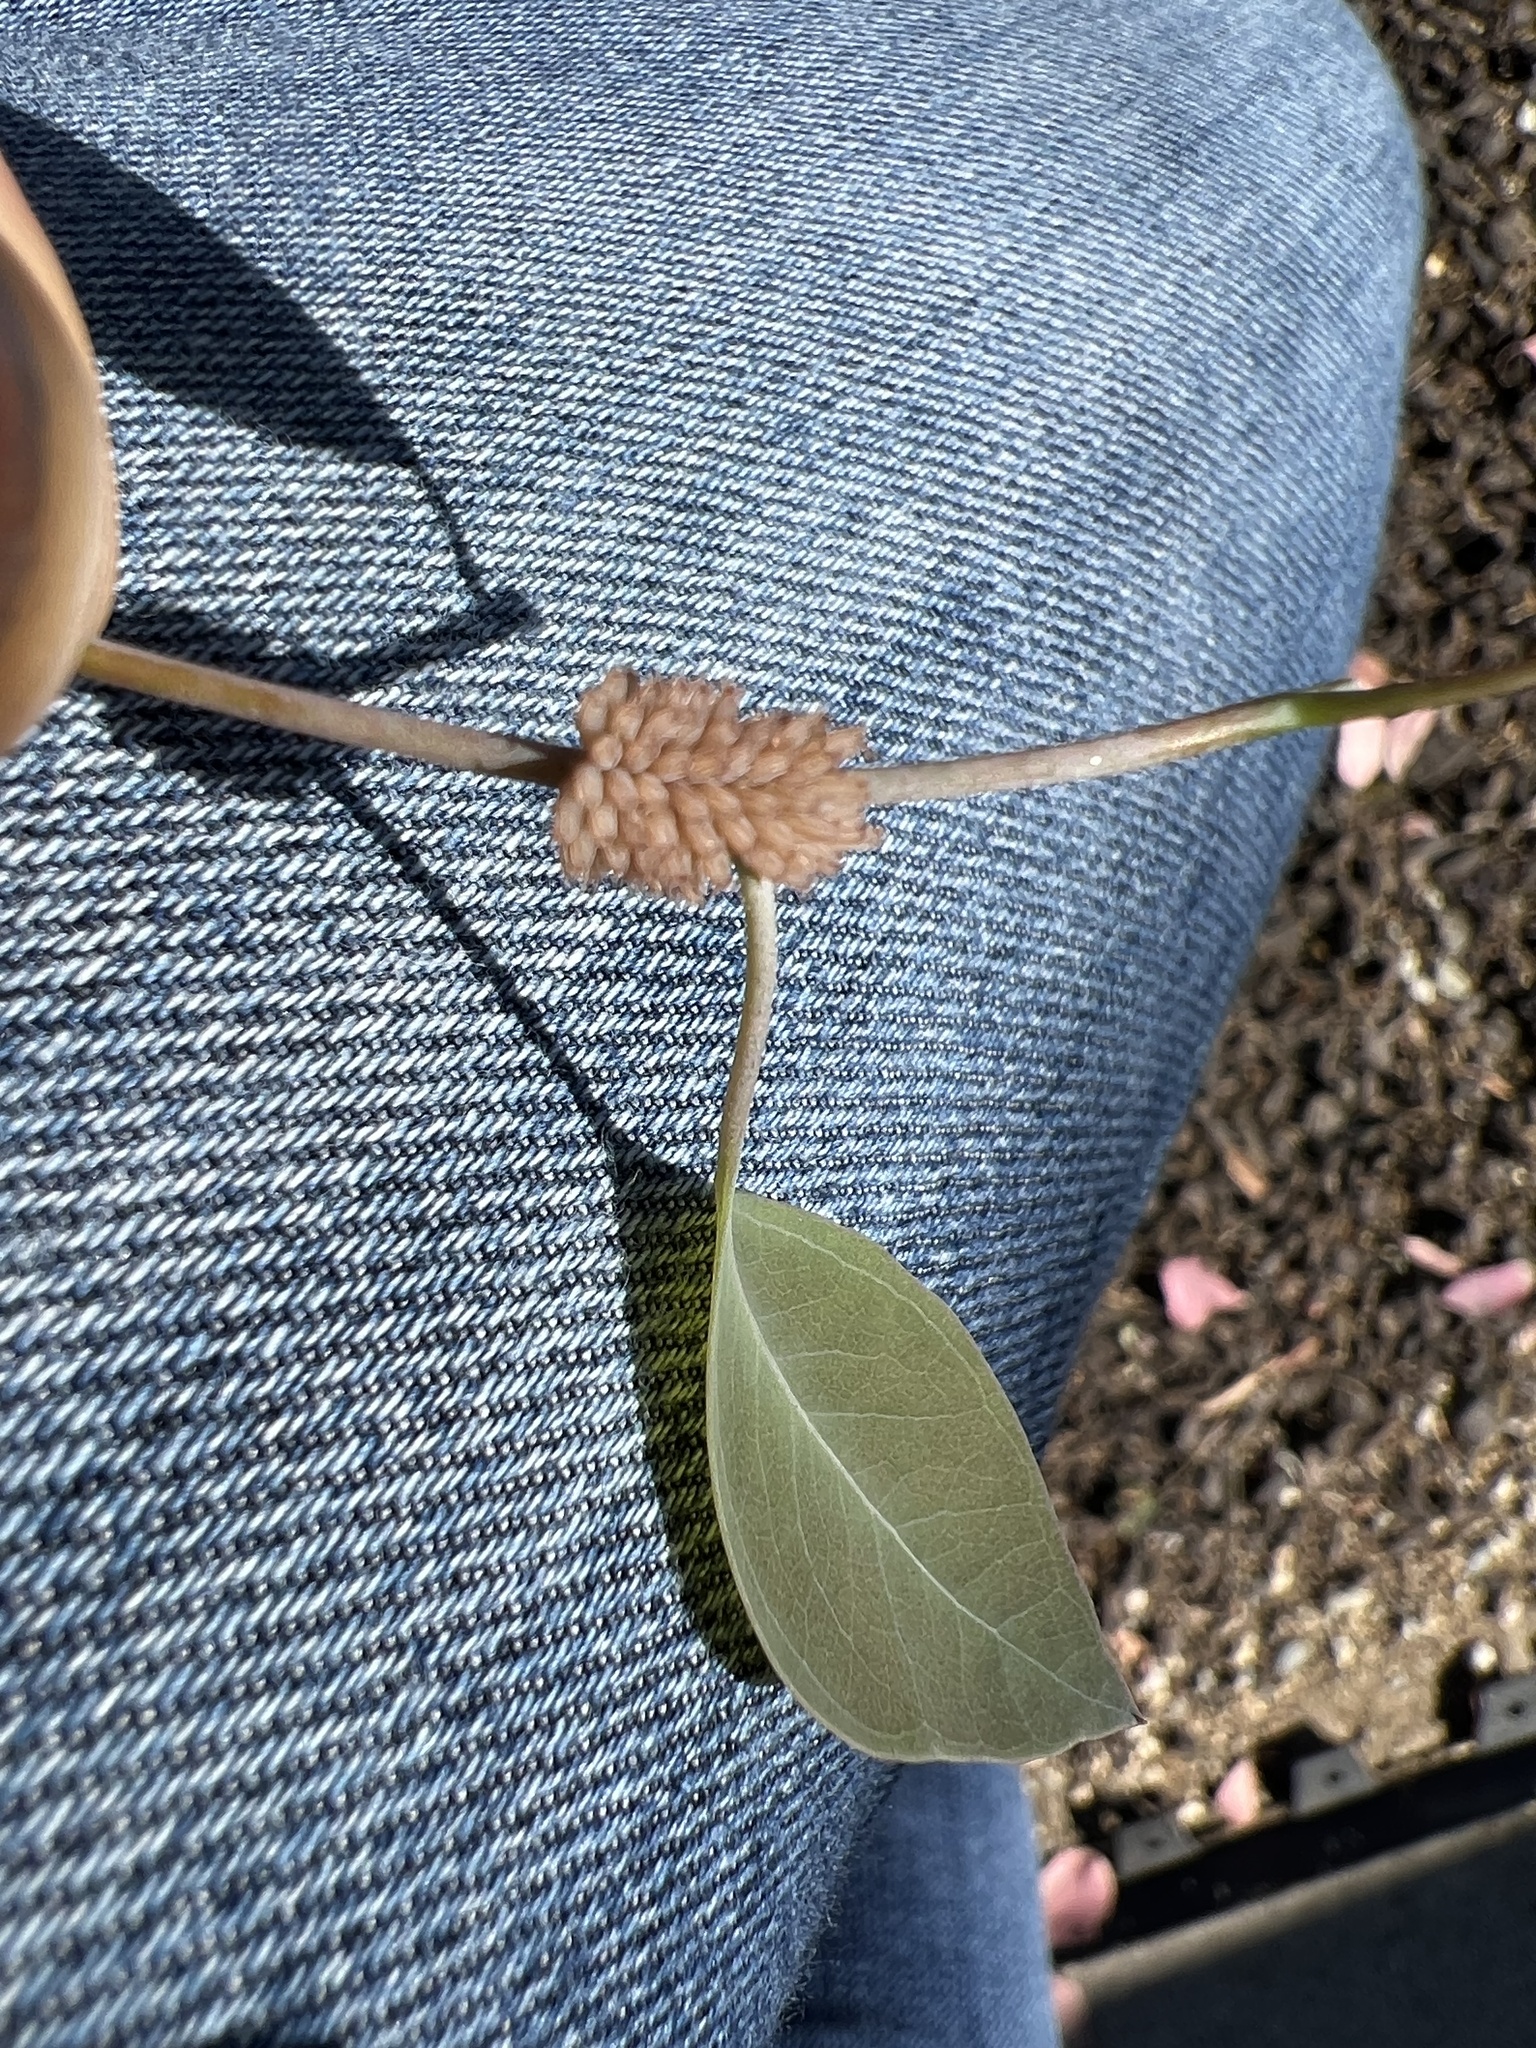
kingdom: Animalia
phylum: Arthropoda
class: Insecta
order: Coleoptera
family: Chrysomelidae
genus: Paropsis
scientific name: Paropsis
